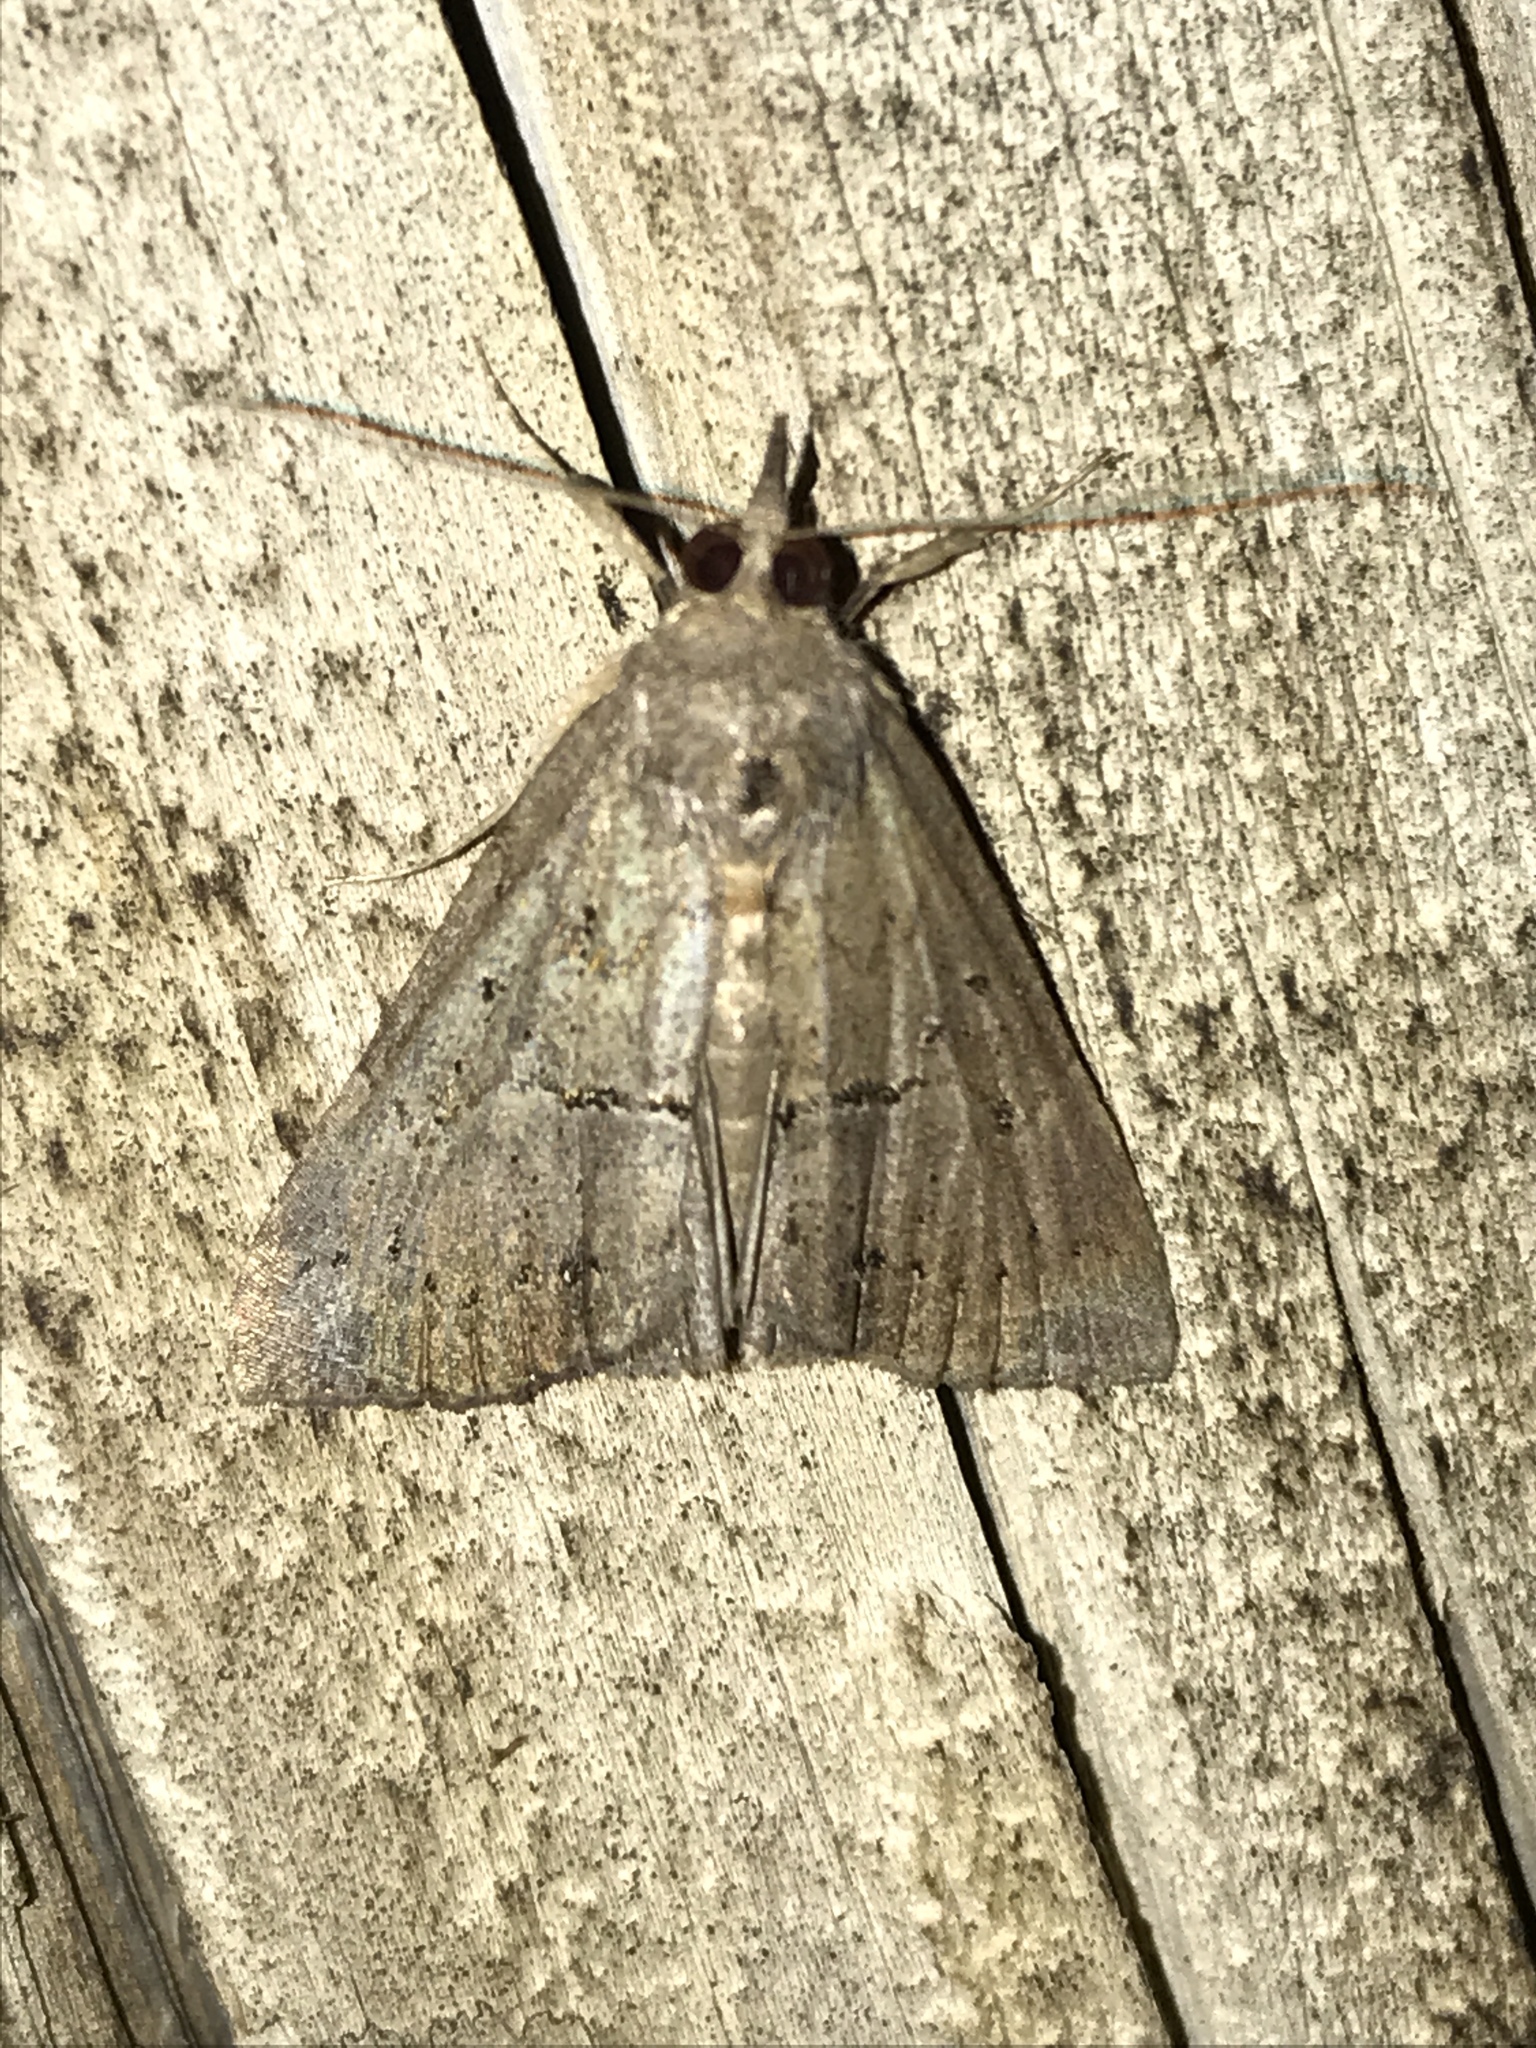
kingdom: Animalia
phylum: Arthropoda
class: Insecta
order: Lepidoptera
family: Erebidae
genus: Hypena
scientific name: Hypena scabra
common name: Green cloverworm
